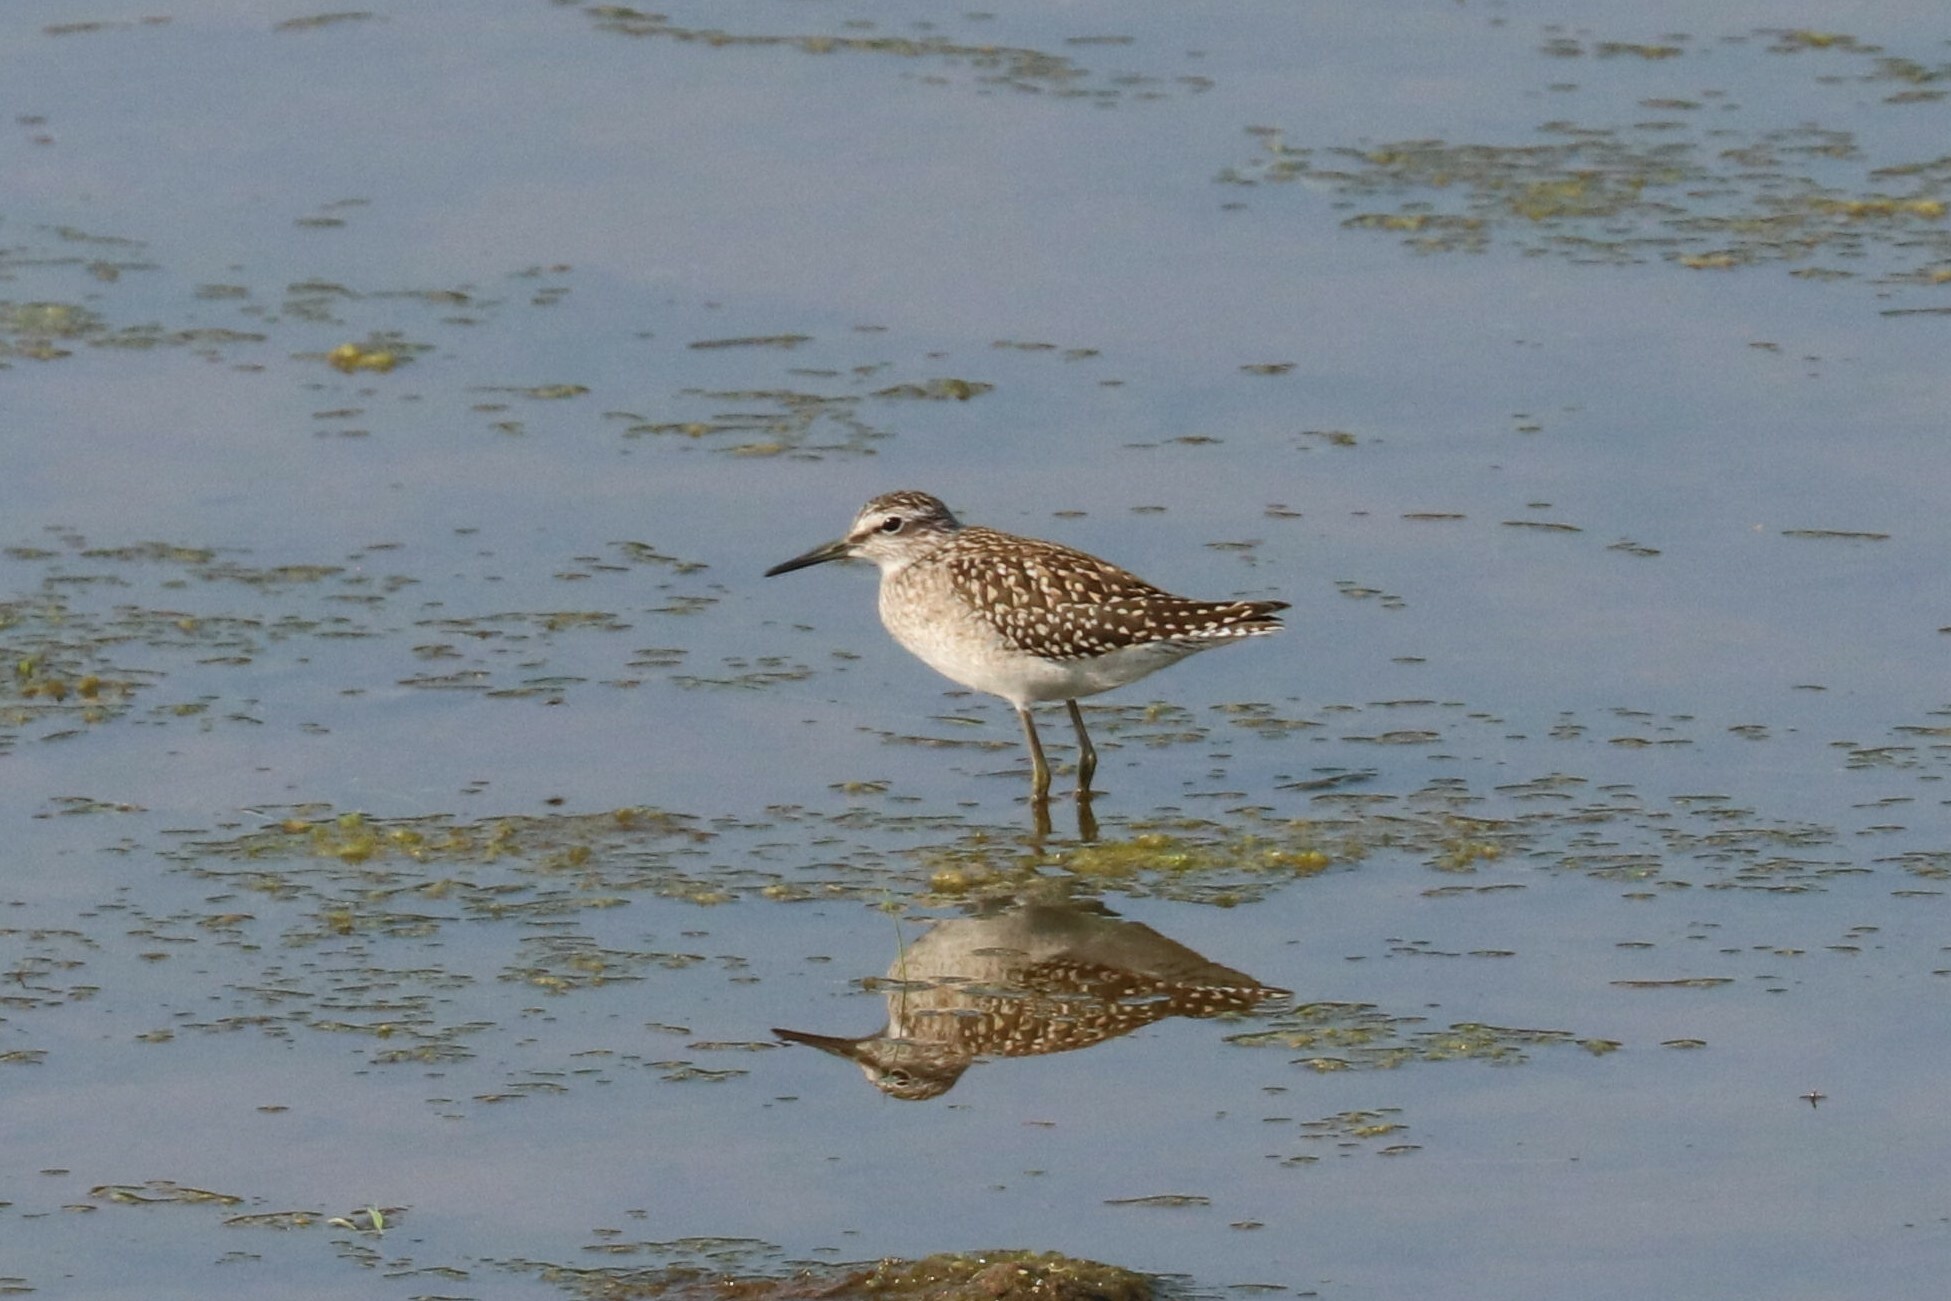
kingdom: Animalia
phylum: Chordata
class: Aves
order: Charadriiformes
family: Scolopacidae
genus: Tringa
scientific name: Tringa glareola
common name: Wood sandpiper
